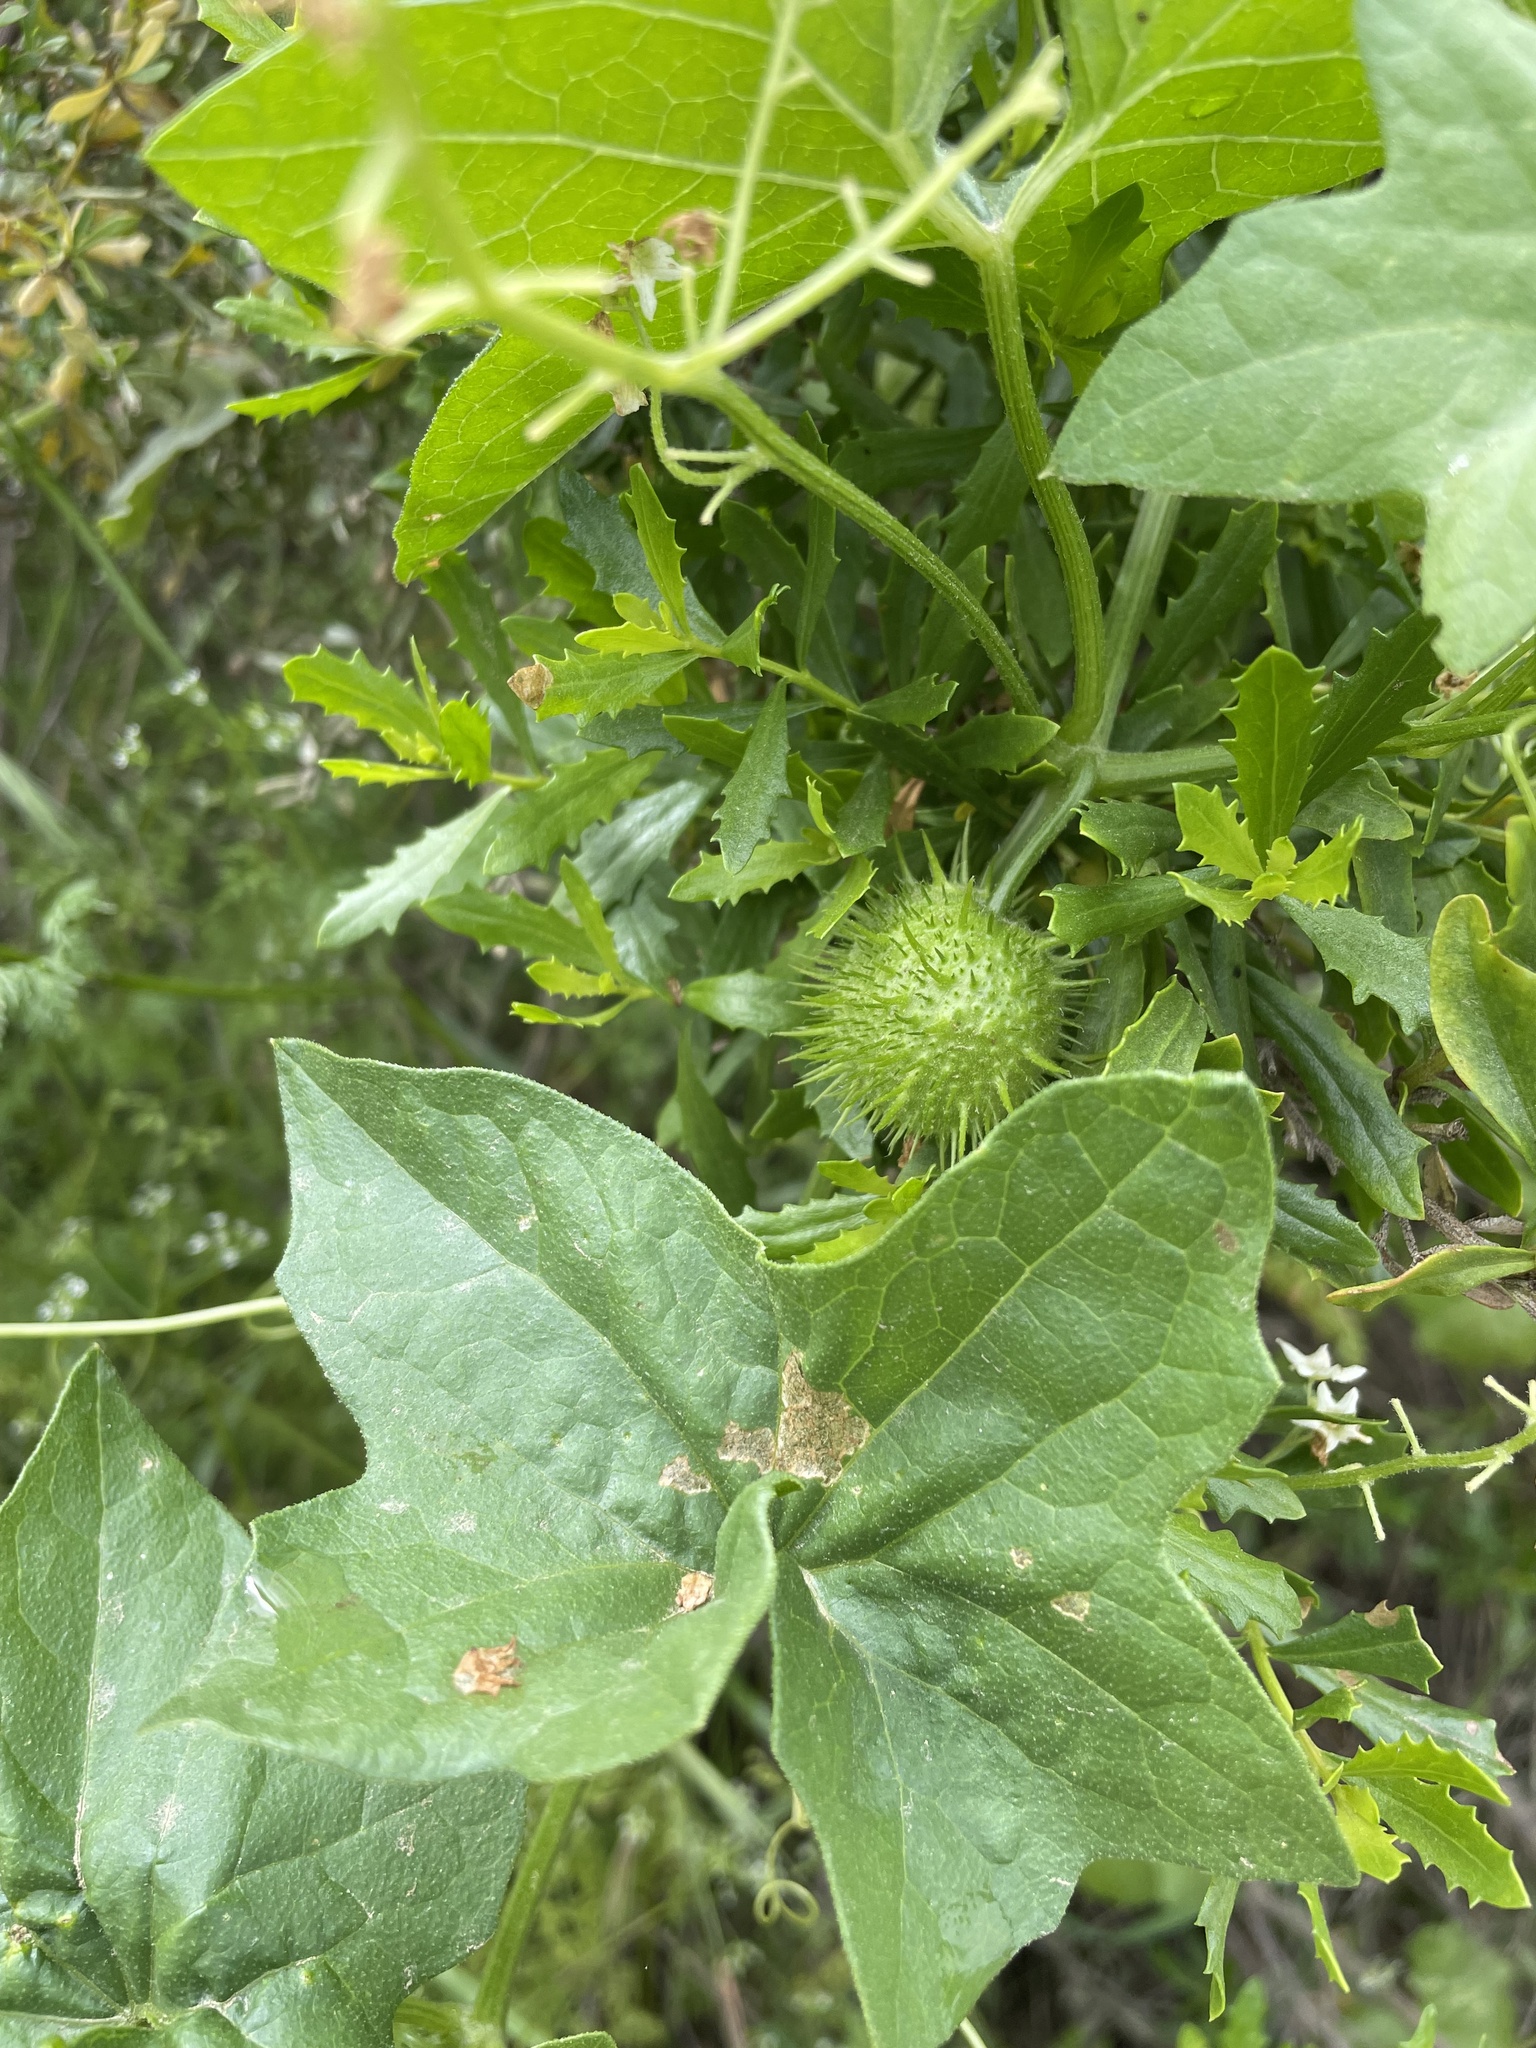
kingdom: Plantae
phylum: Tracheophyta
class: Magnoliopsida
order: Cucurbitales
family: Cucurbitaceae
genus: Marah
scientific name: Marah fabacea
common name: California manroot
